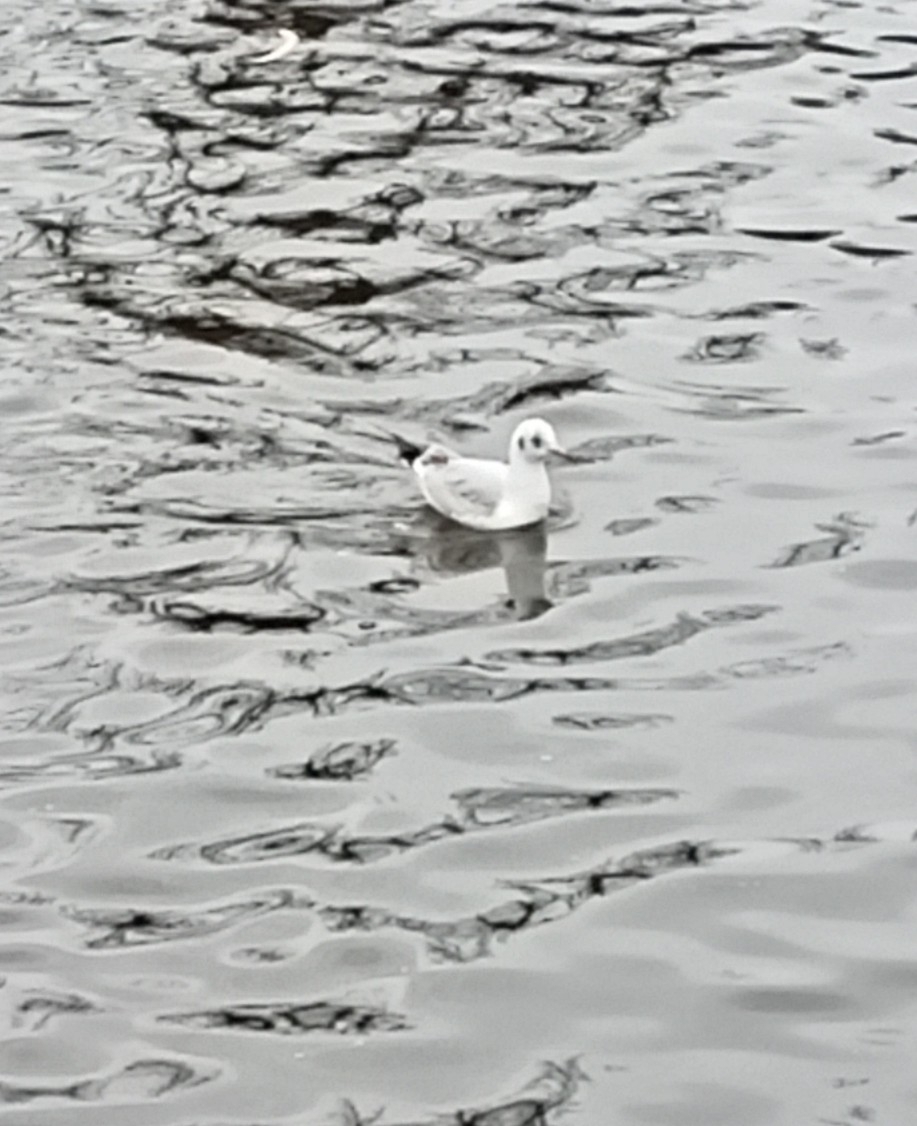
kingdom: Animalia
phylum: Chordata
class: Aves
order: Charadriiformes
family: Laridae
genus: Chroicocephalus
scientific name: Chroicocephalus ridibundus
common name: Black-headed gull
